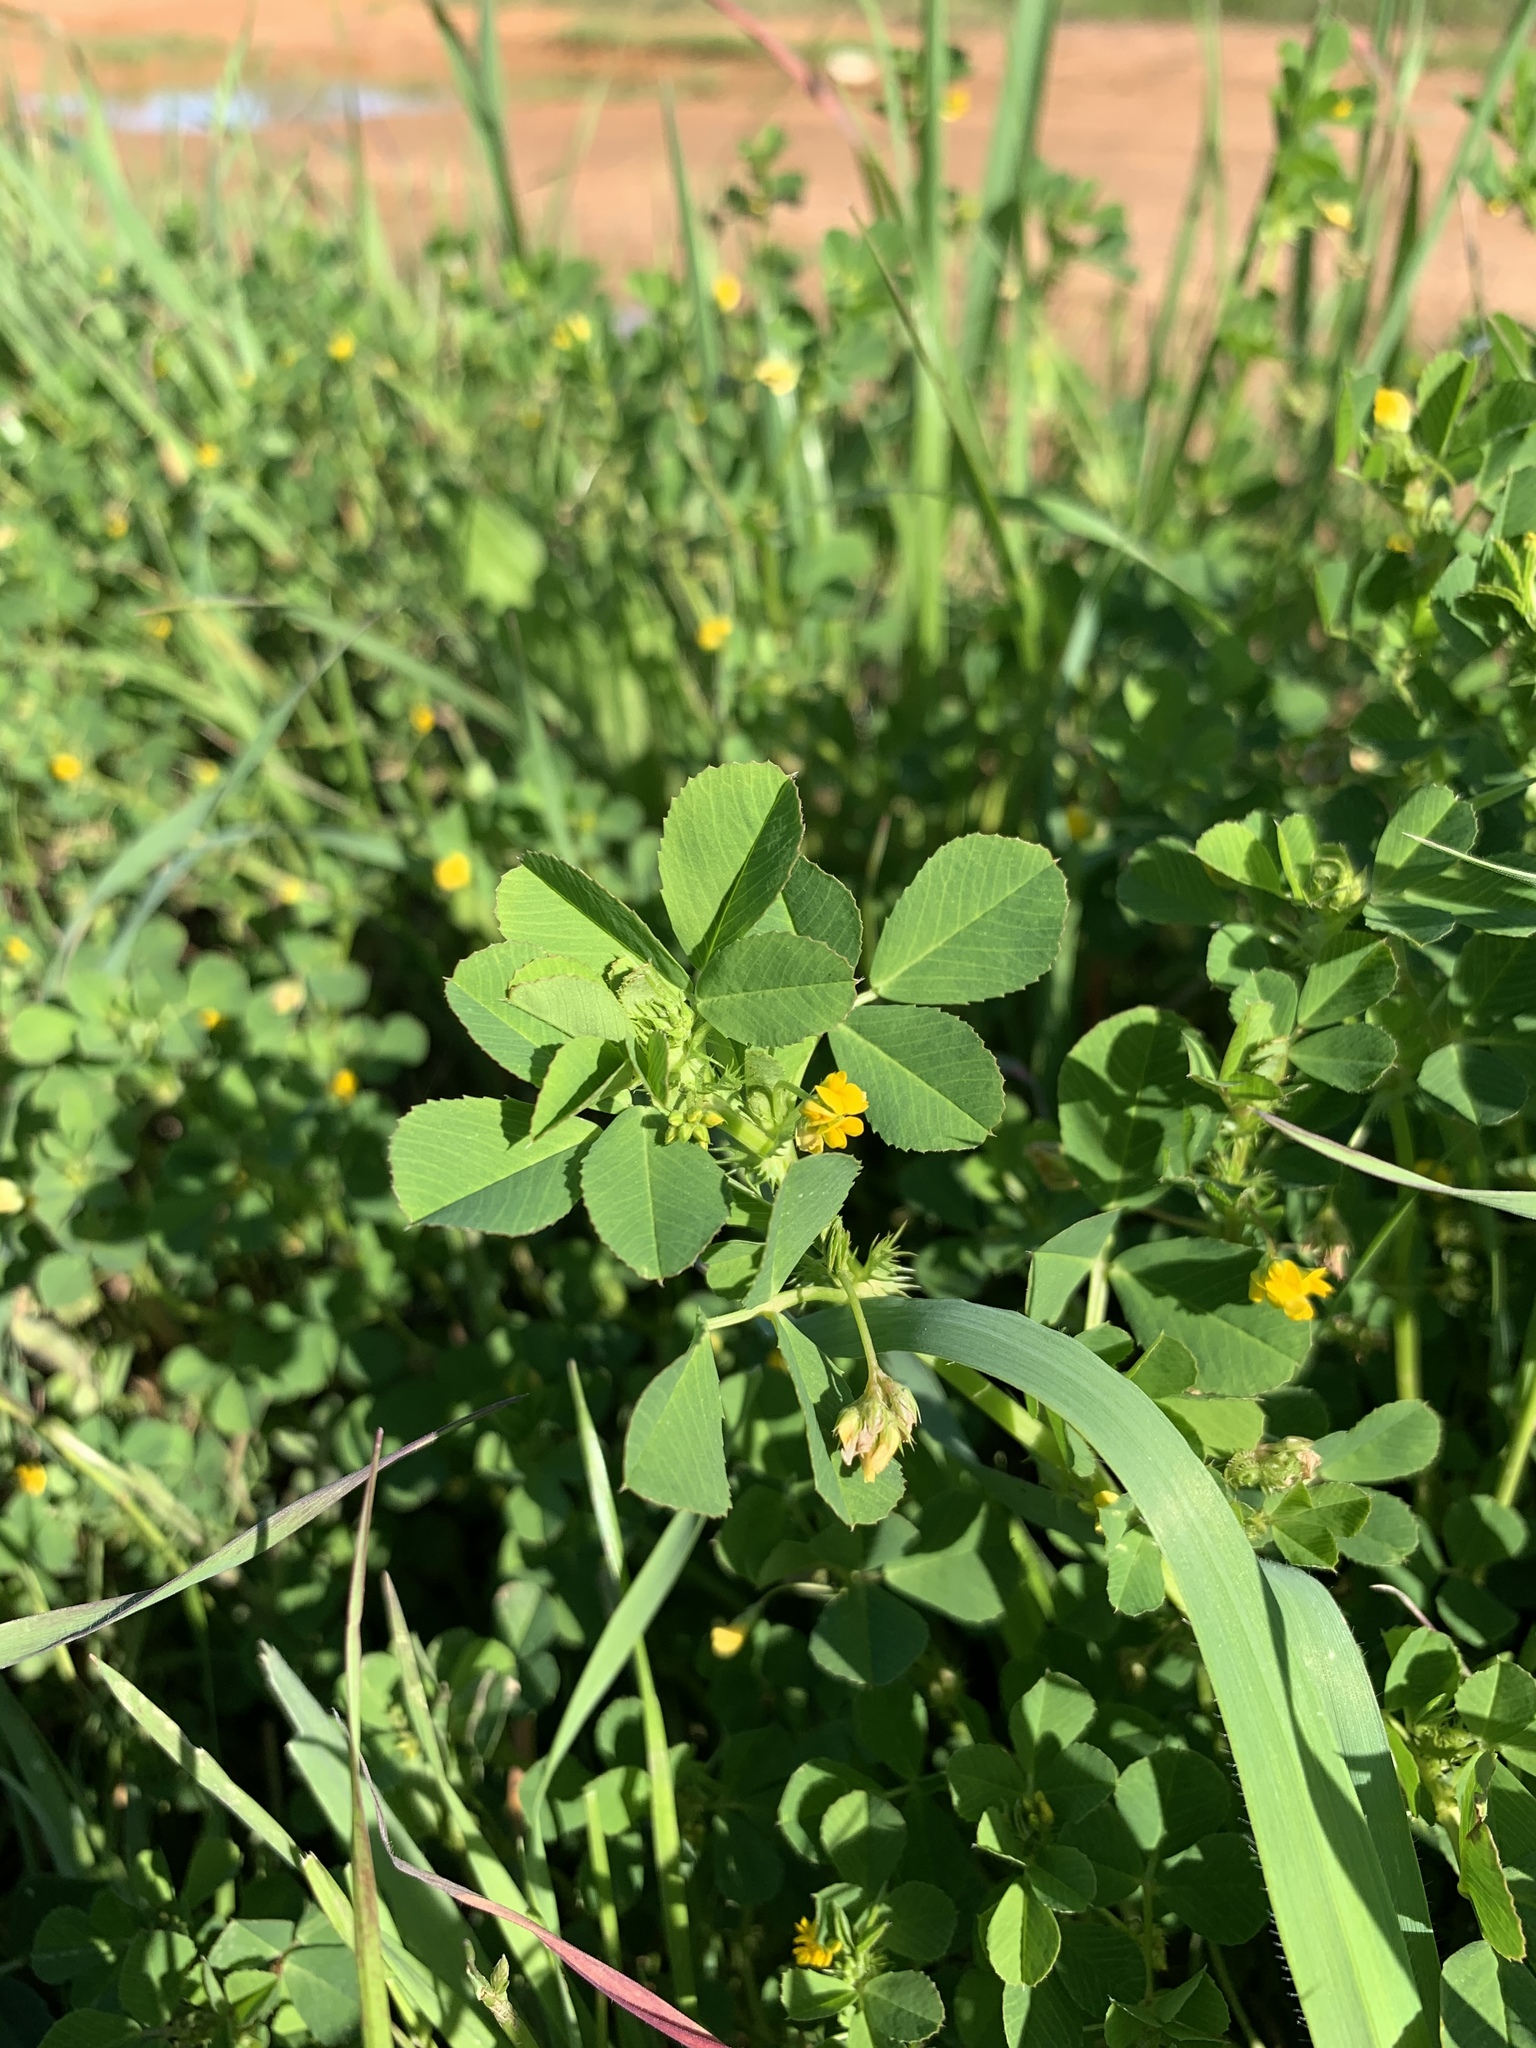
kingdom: Plantae
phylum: Tracheophyta
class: Magnoliopsida
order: Fabales
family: Fabaceae
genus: Medicago
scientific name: Medicago polymorpha
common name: Burclover
